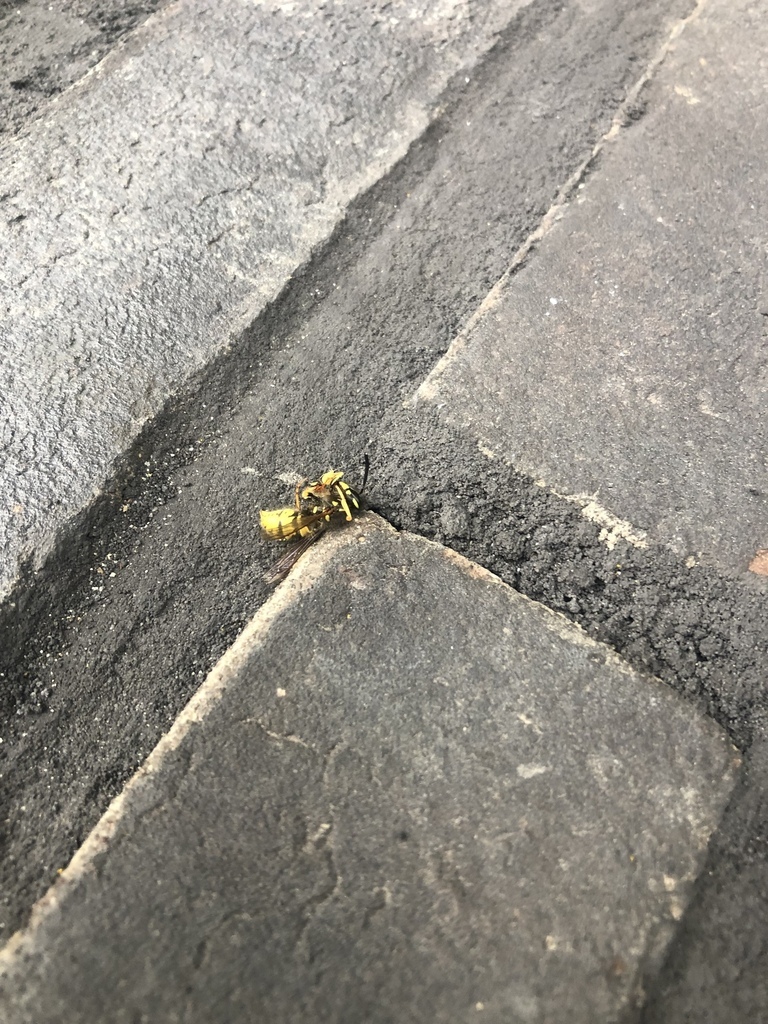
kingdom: Animalia
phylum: Arthropoda
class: Insecta
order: Hymenoptera
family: Vespidae
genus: Vespa
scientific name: Vespa crabro
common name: Hornet
